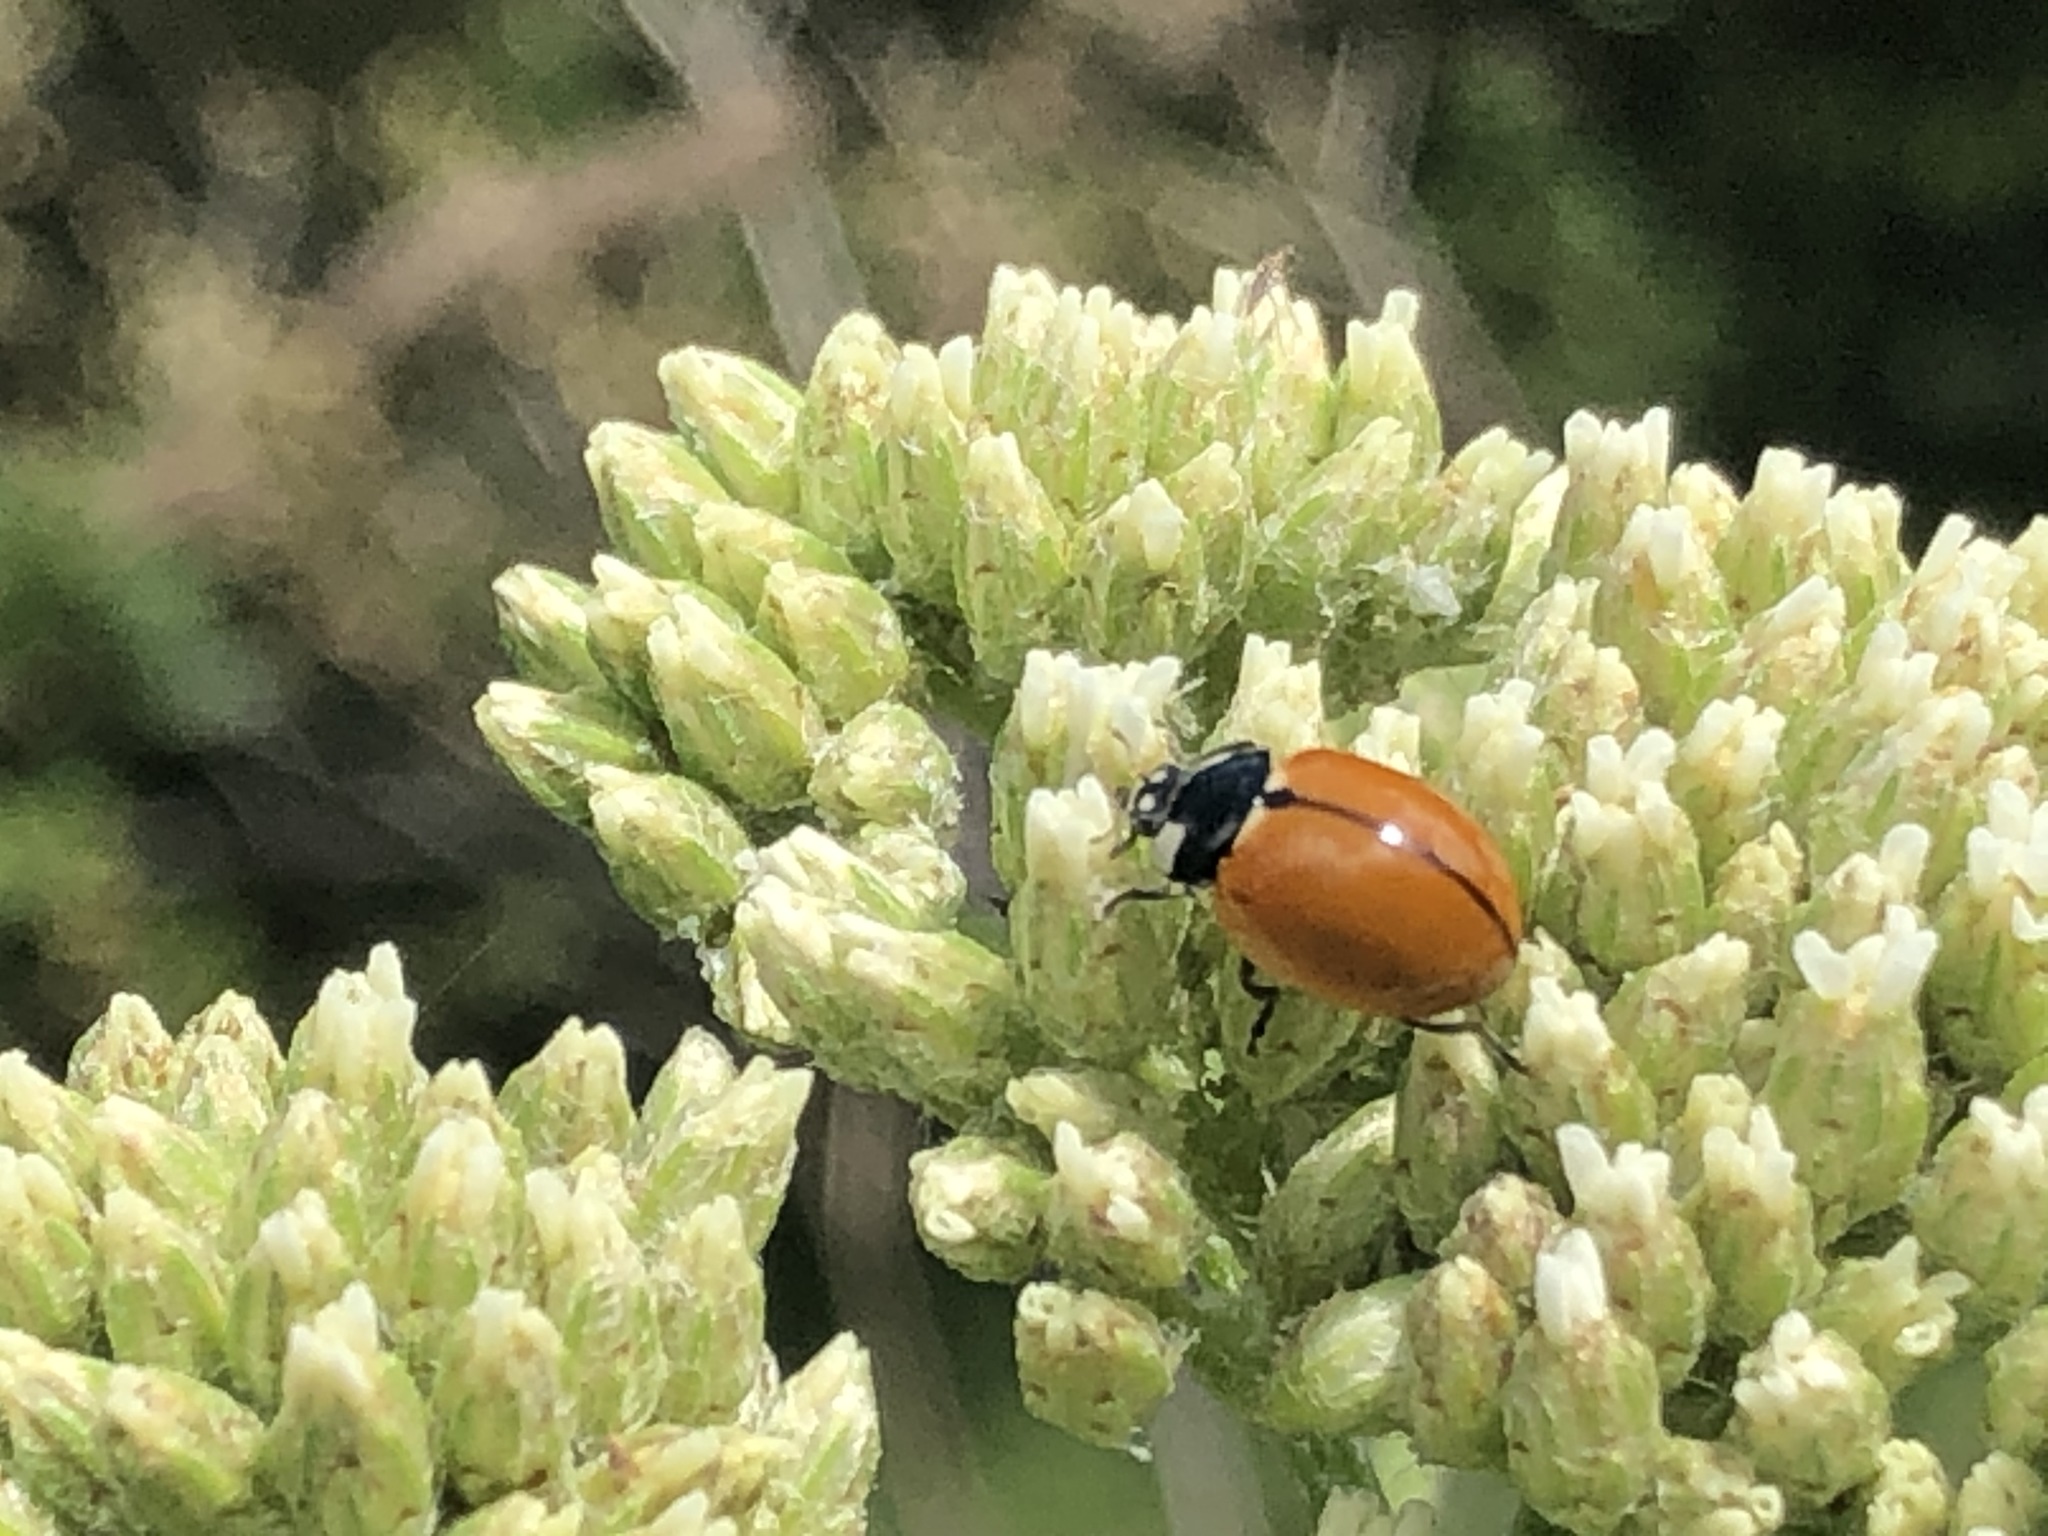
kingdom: Animalia
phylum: Arthropoda
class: Insecta
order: Coleoptera
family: Coccinellidae
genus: Coccinella
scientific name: Coccinella californica
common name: Lady beetle
